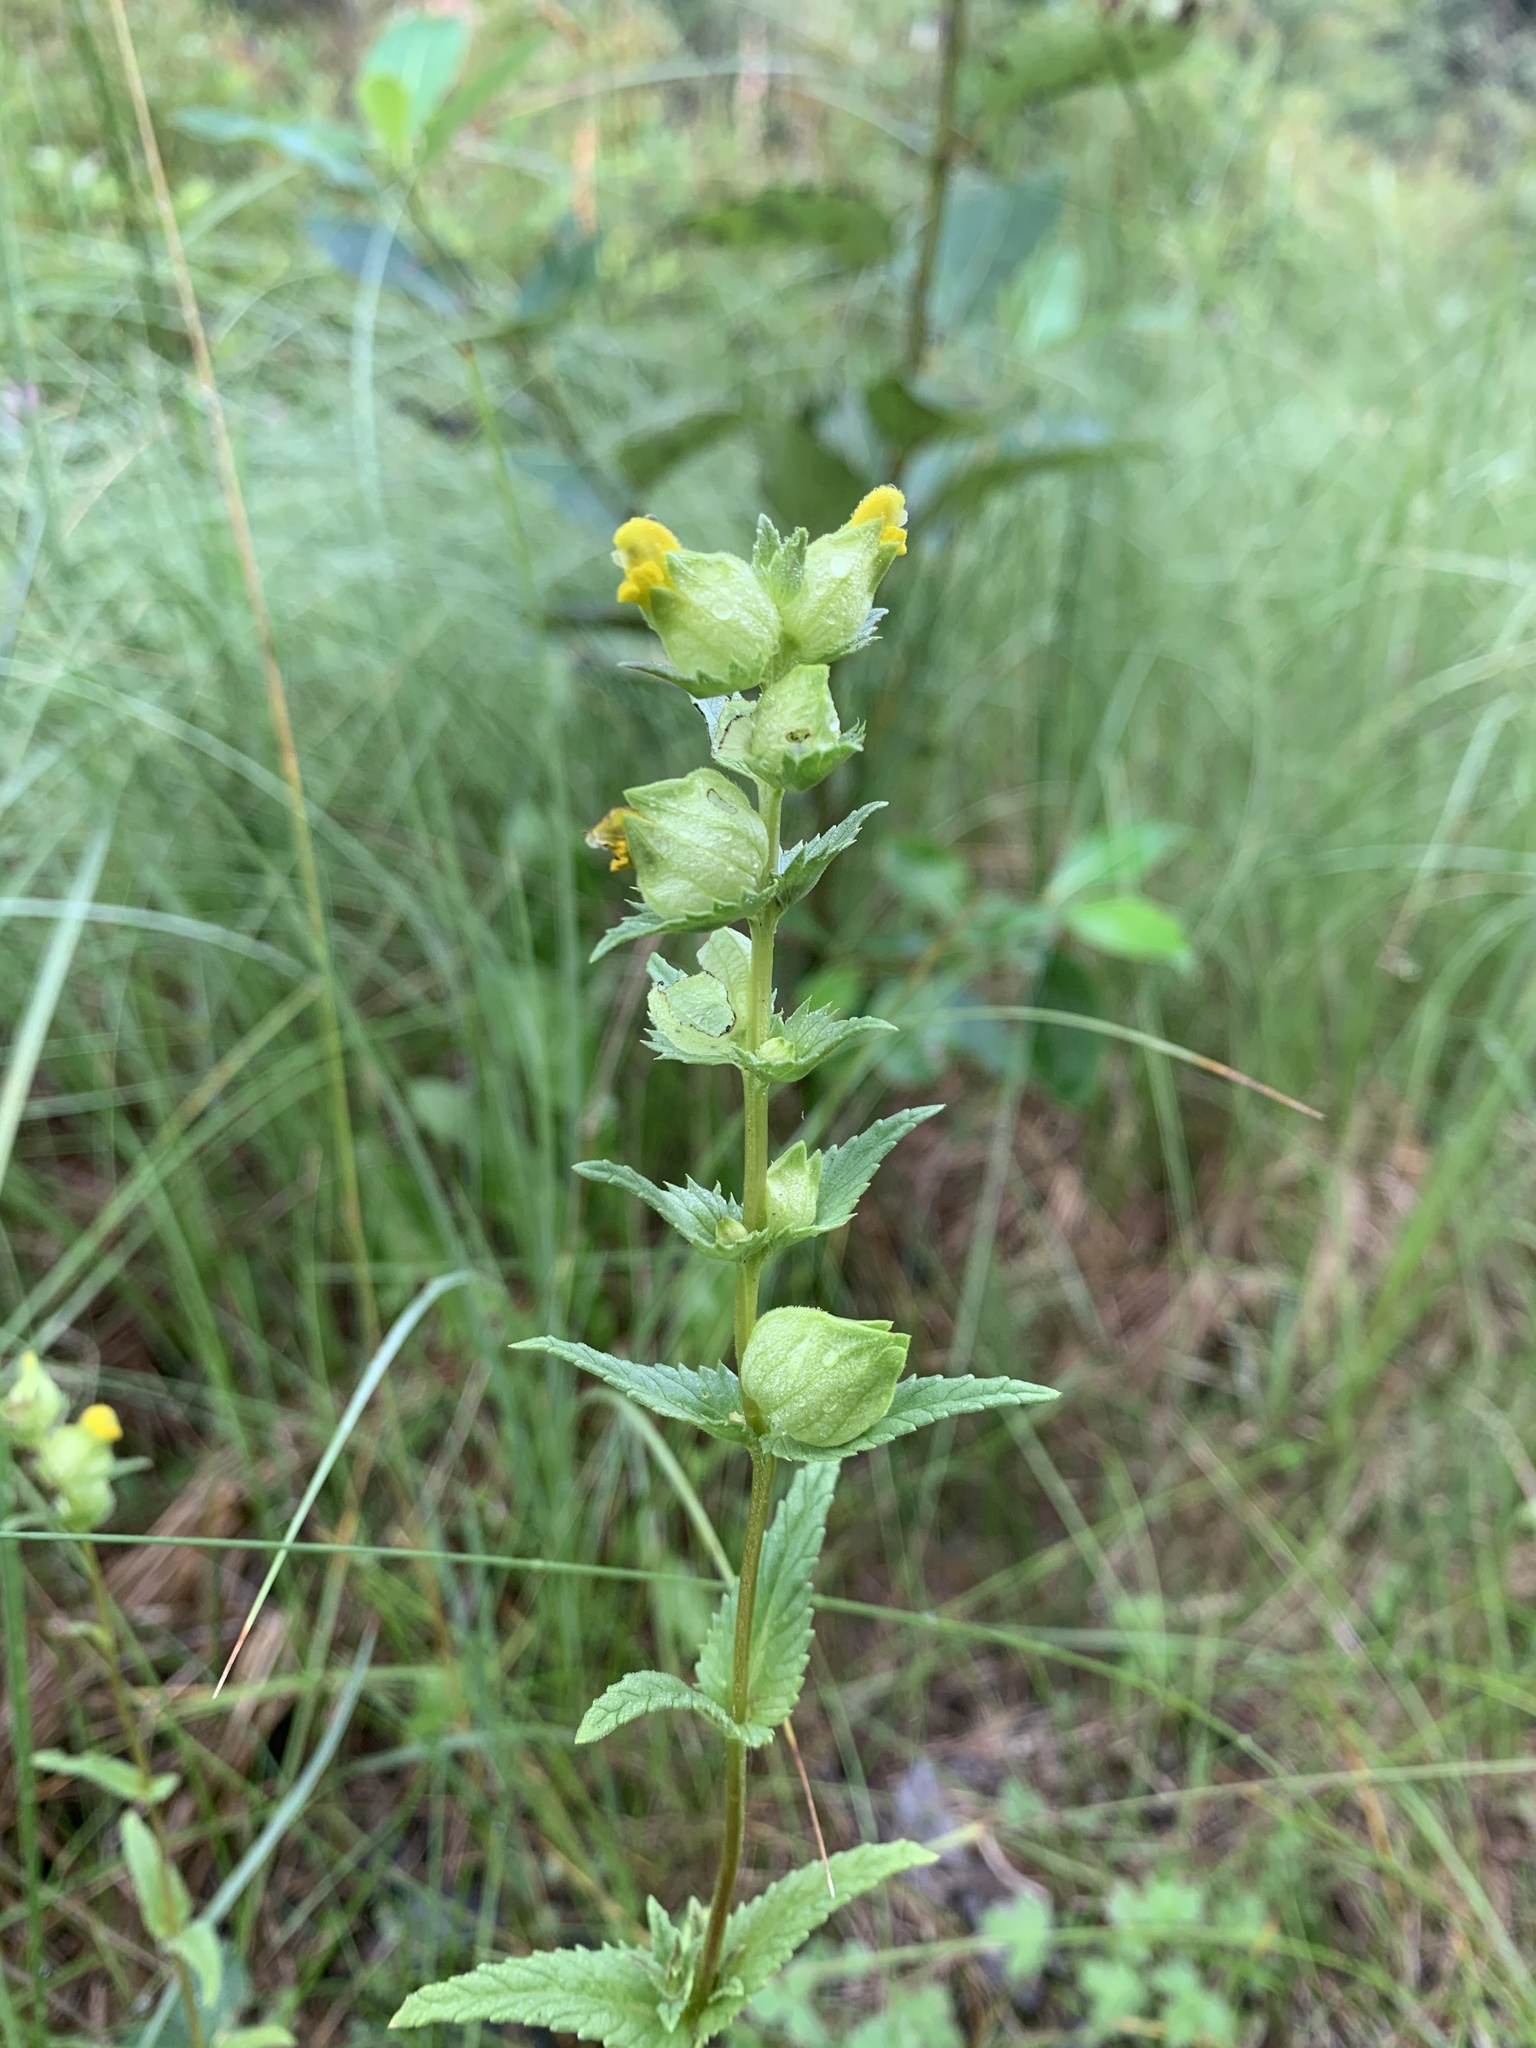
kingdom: Plantae
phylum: Tracheophyta
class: Magnoliopsida
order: Lamiales
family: Orobanchaceae
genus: Rhinanthus
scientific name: Rhinanthus groenlandicus
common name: Little yellow rattle
